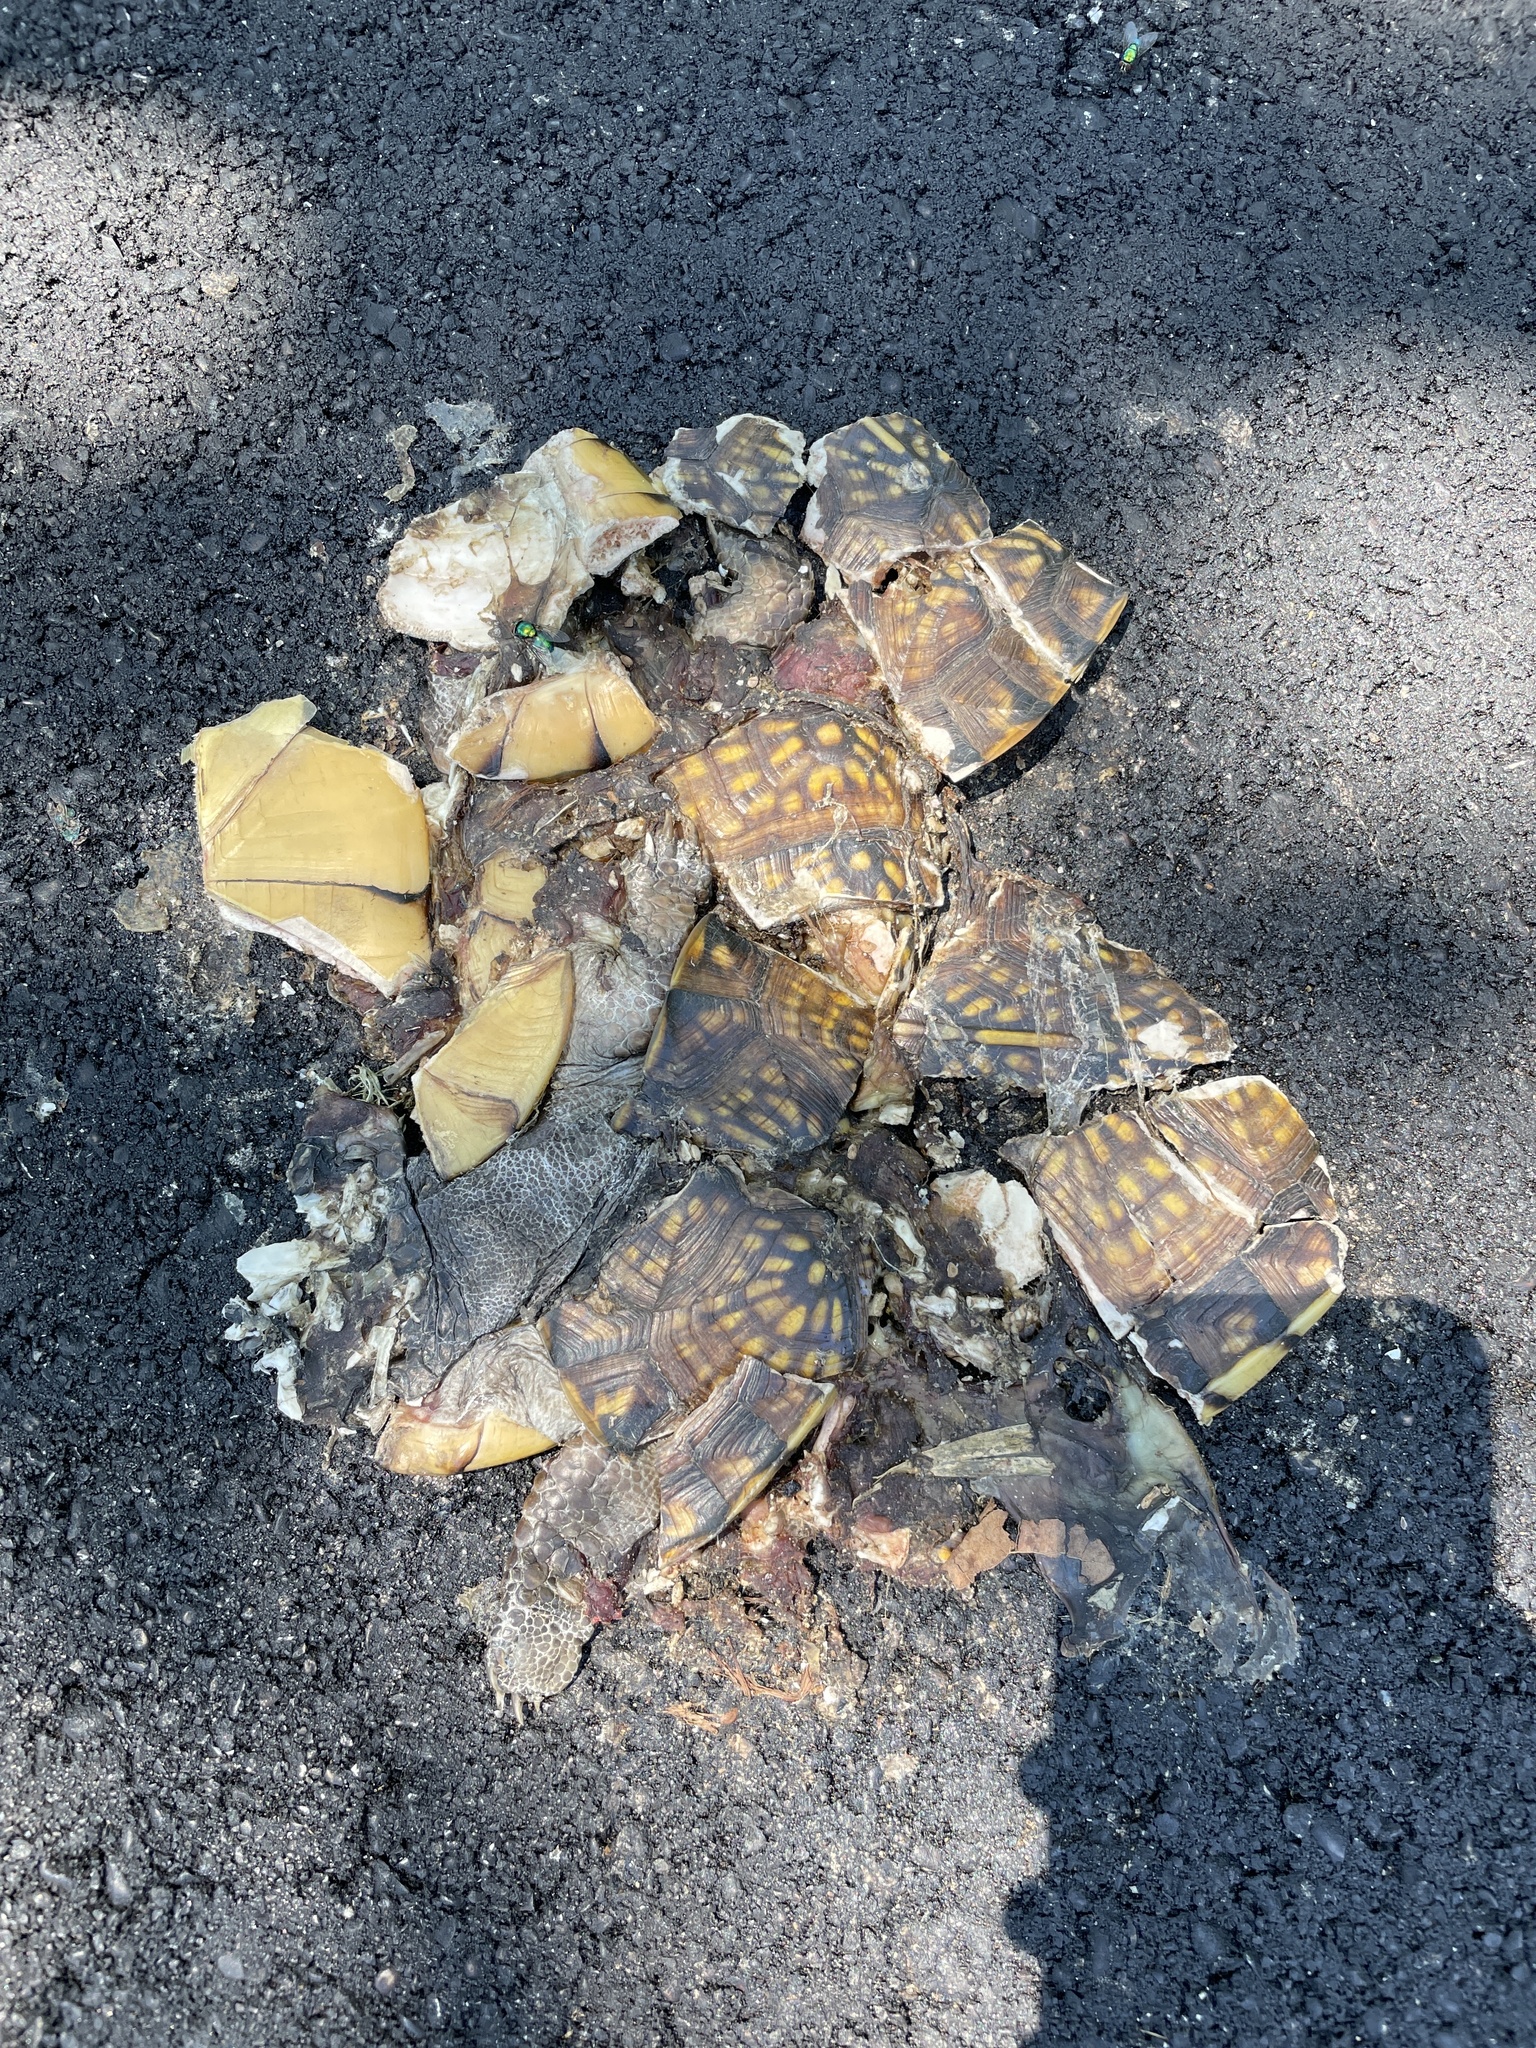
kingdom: Animalia
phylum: Chordata
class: Testudines
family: Emydidae
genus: Terrapene
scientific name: Terrapene carolina
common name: Common box turtle
